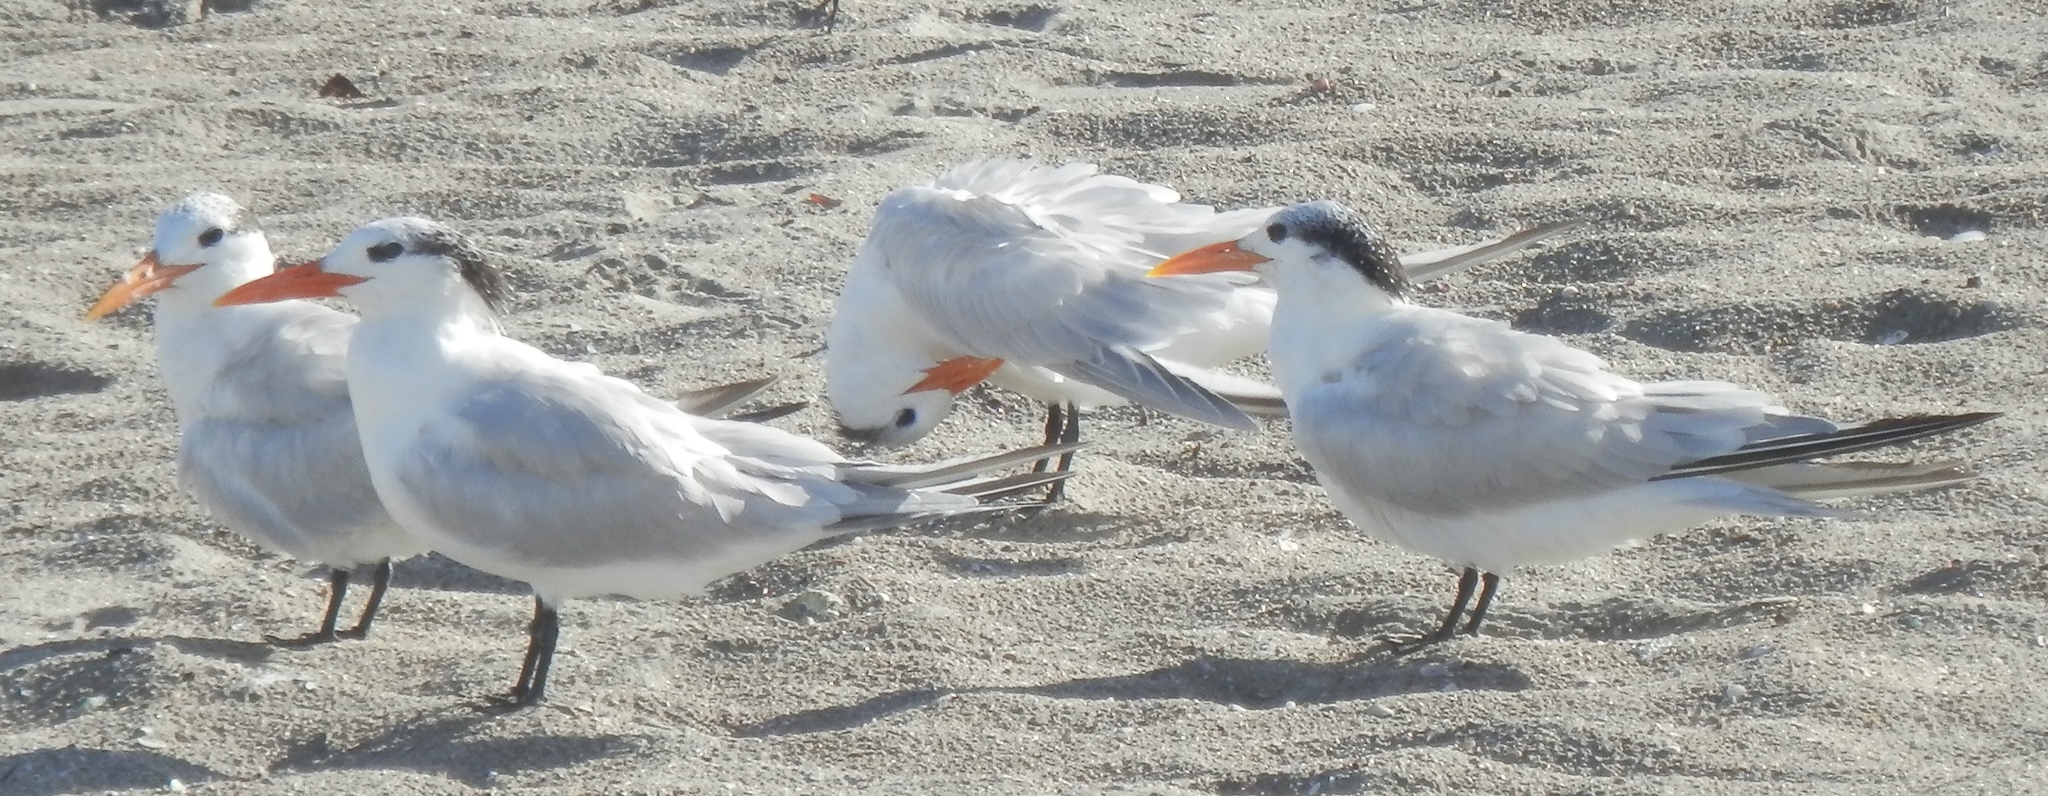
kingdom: Animalia
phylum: Chordata
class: Aves
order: Charadriiformes
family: Laridae
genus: Thalasseus
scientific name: Thalasseus maximus
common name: Royal tern
